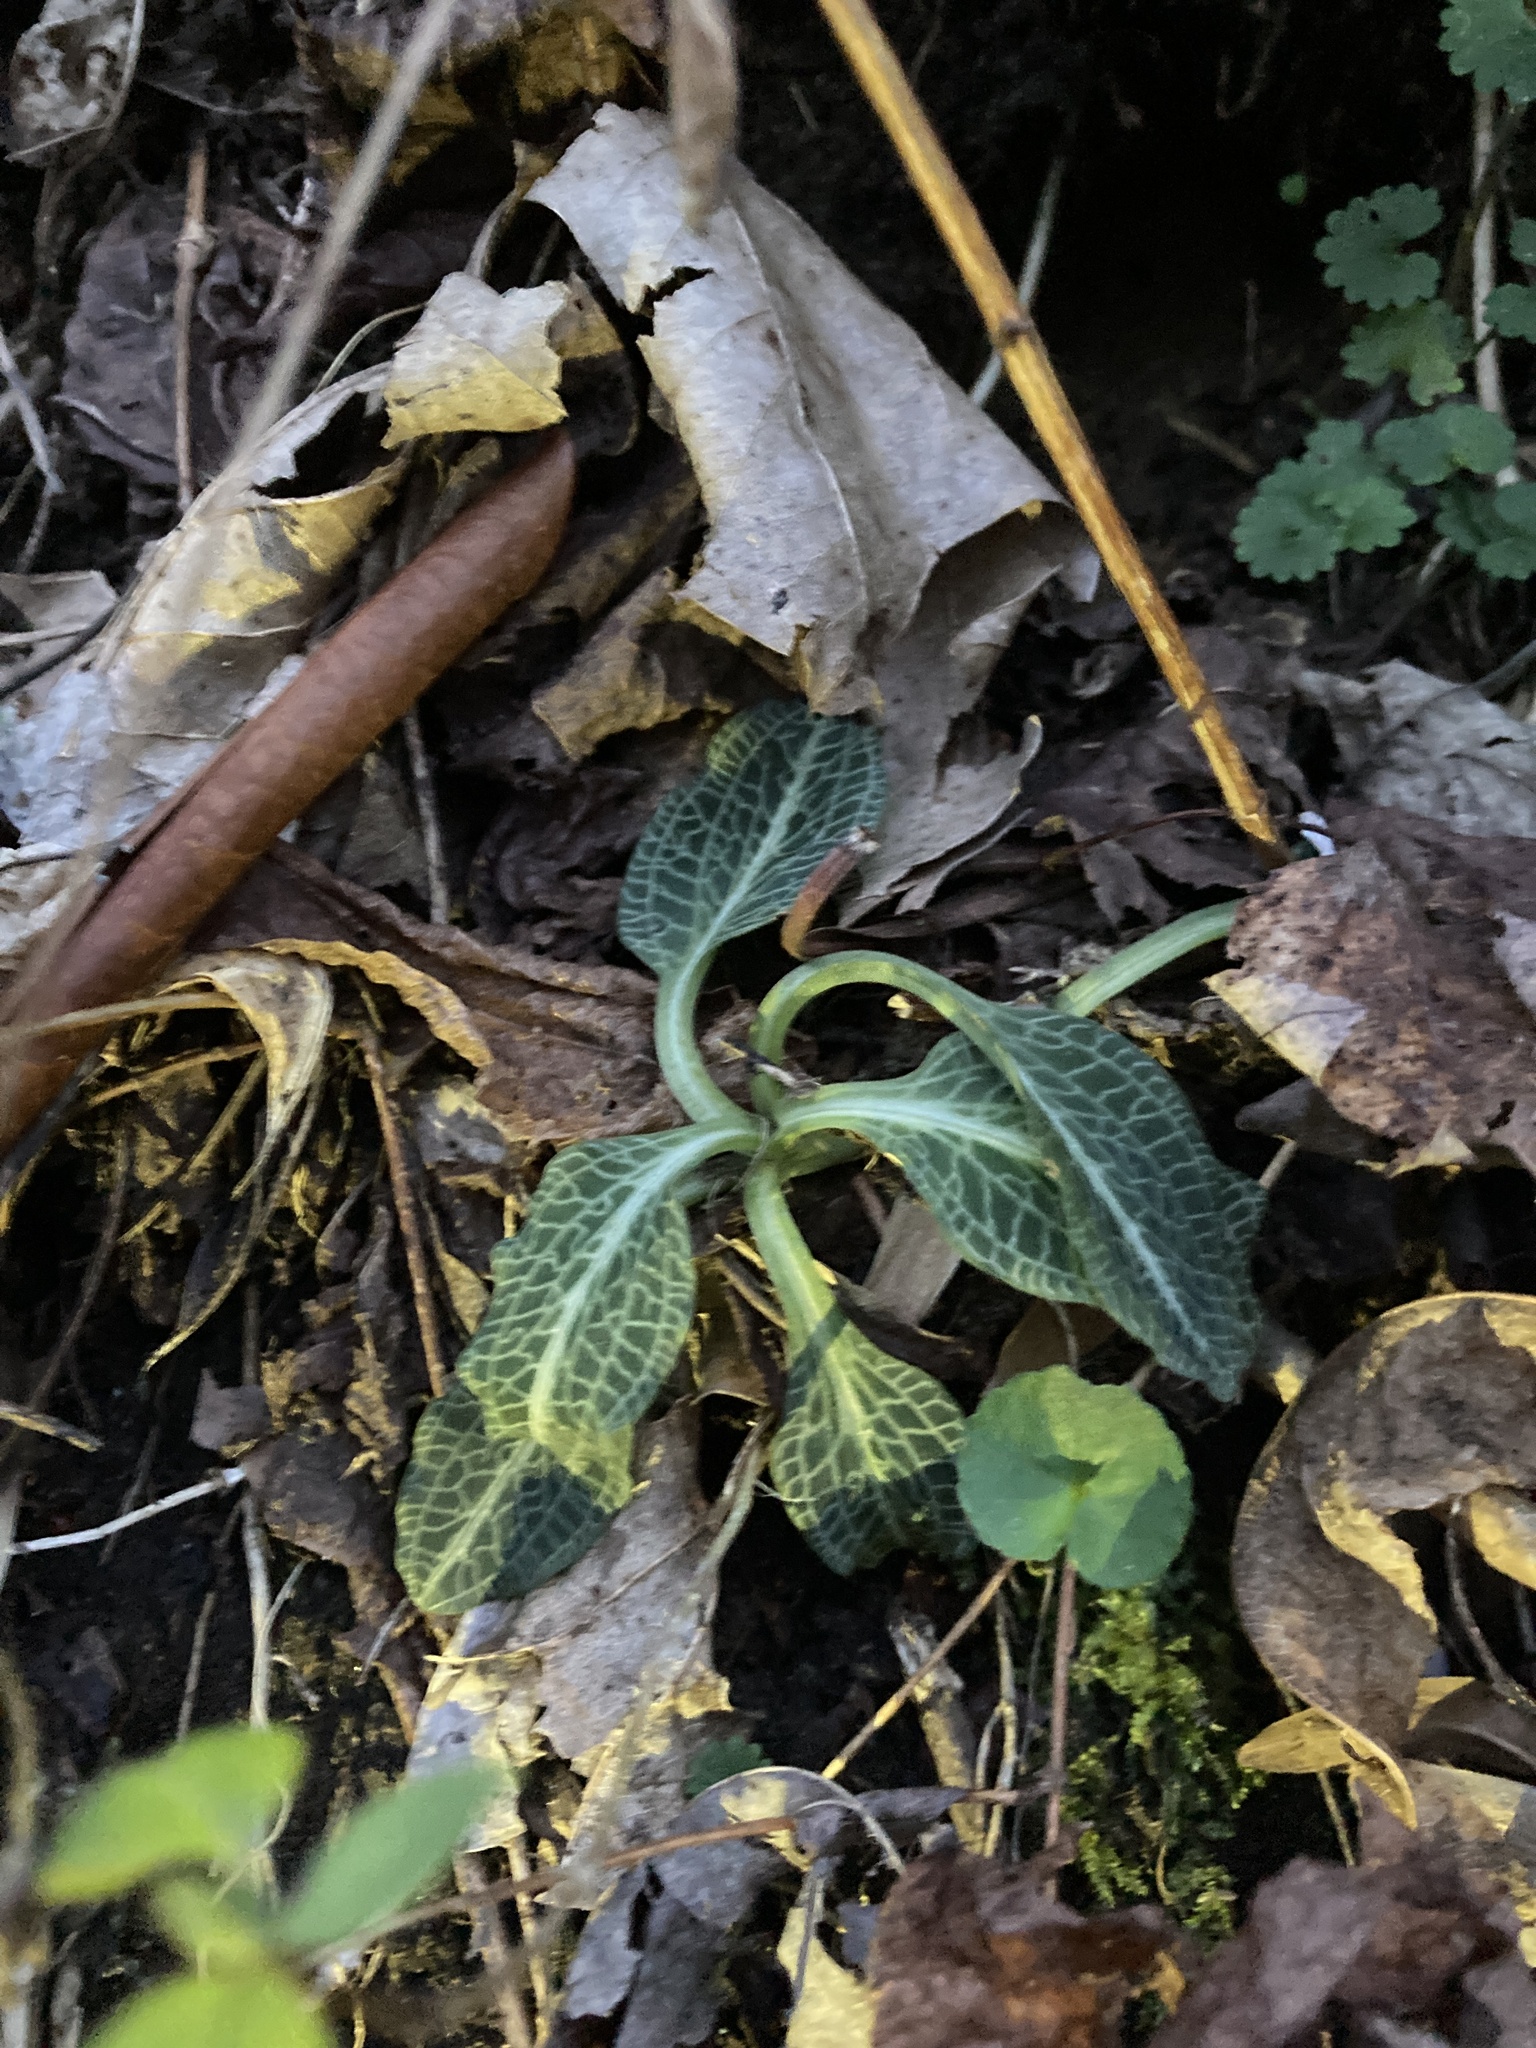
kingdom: Plantae
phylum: Tracheophyta
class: Liliopsida
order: Asparagales
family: Orchidaceae
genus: Goodyera
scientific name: Goodyera pubescens
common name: Downy rattlesnake-plantain
